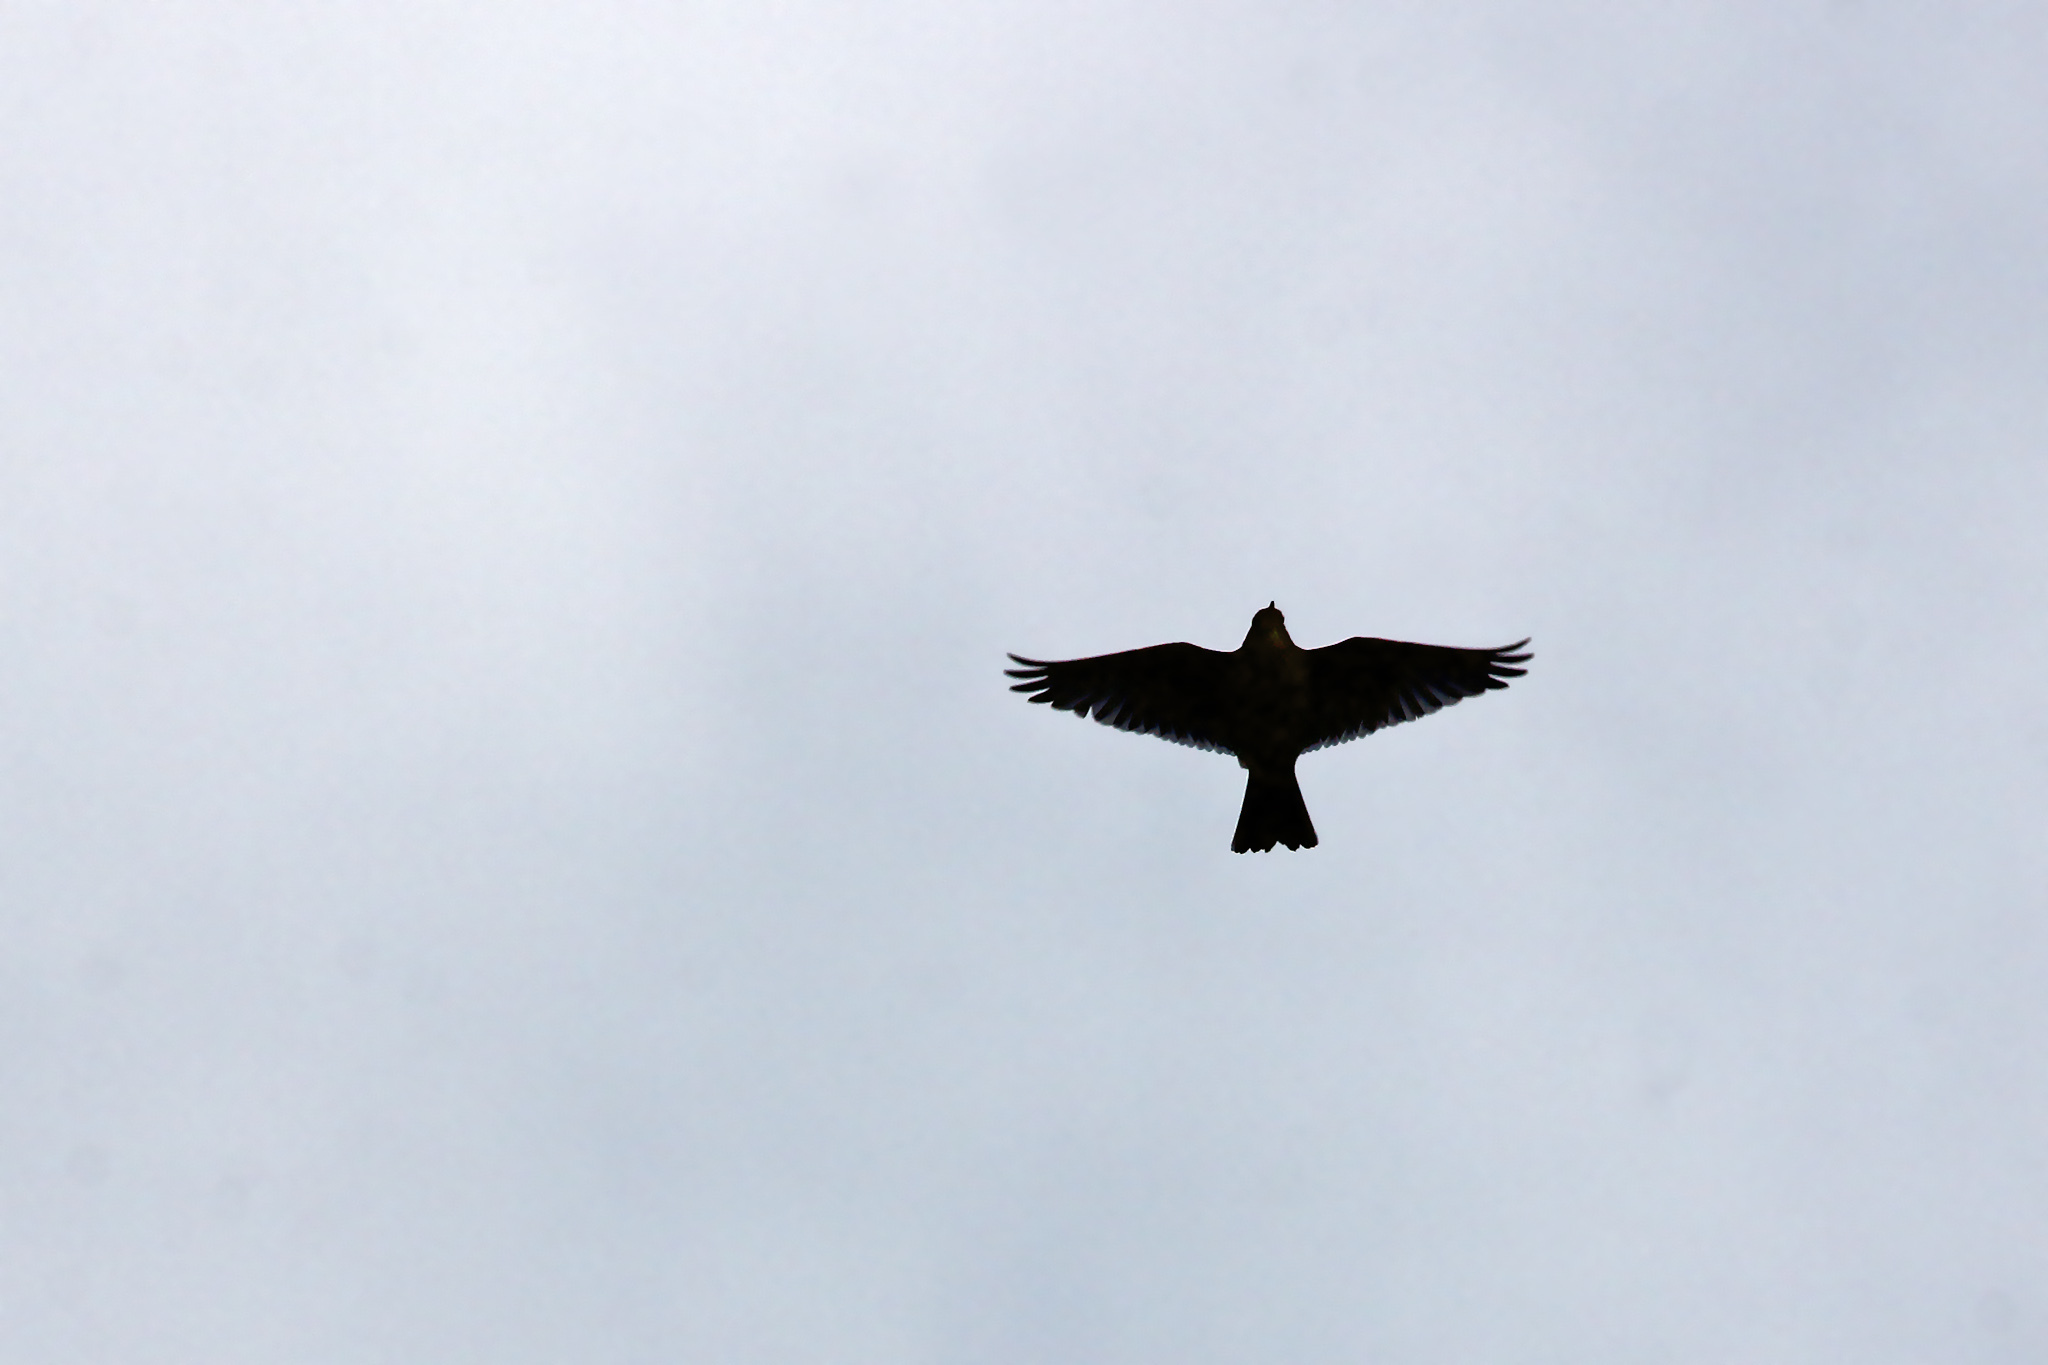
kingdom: Animalia
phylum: Chordata
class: Aves
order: Passeriformes
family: Alaudidae
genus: Alauda
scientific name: Alauda arvensis
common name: Eurasian skylark
